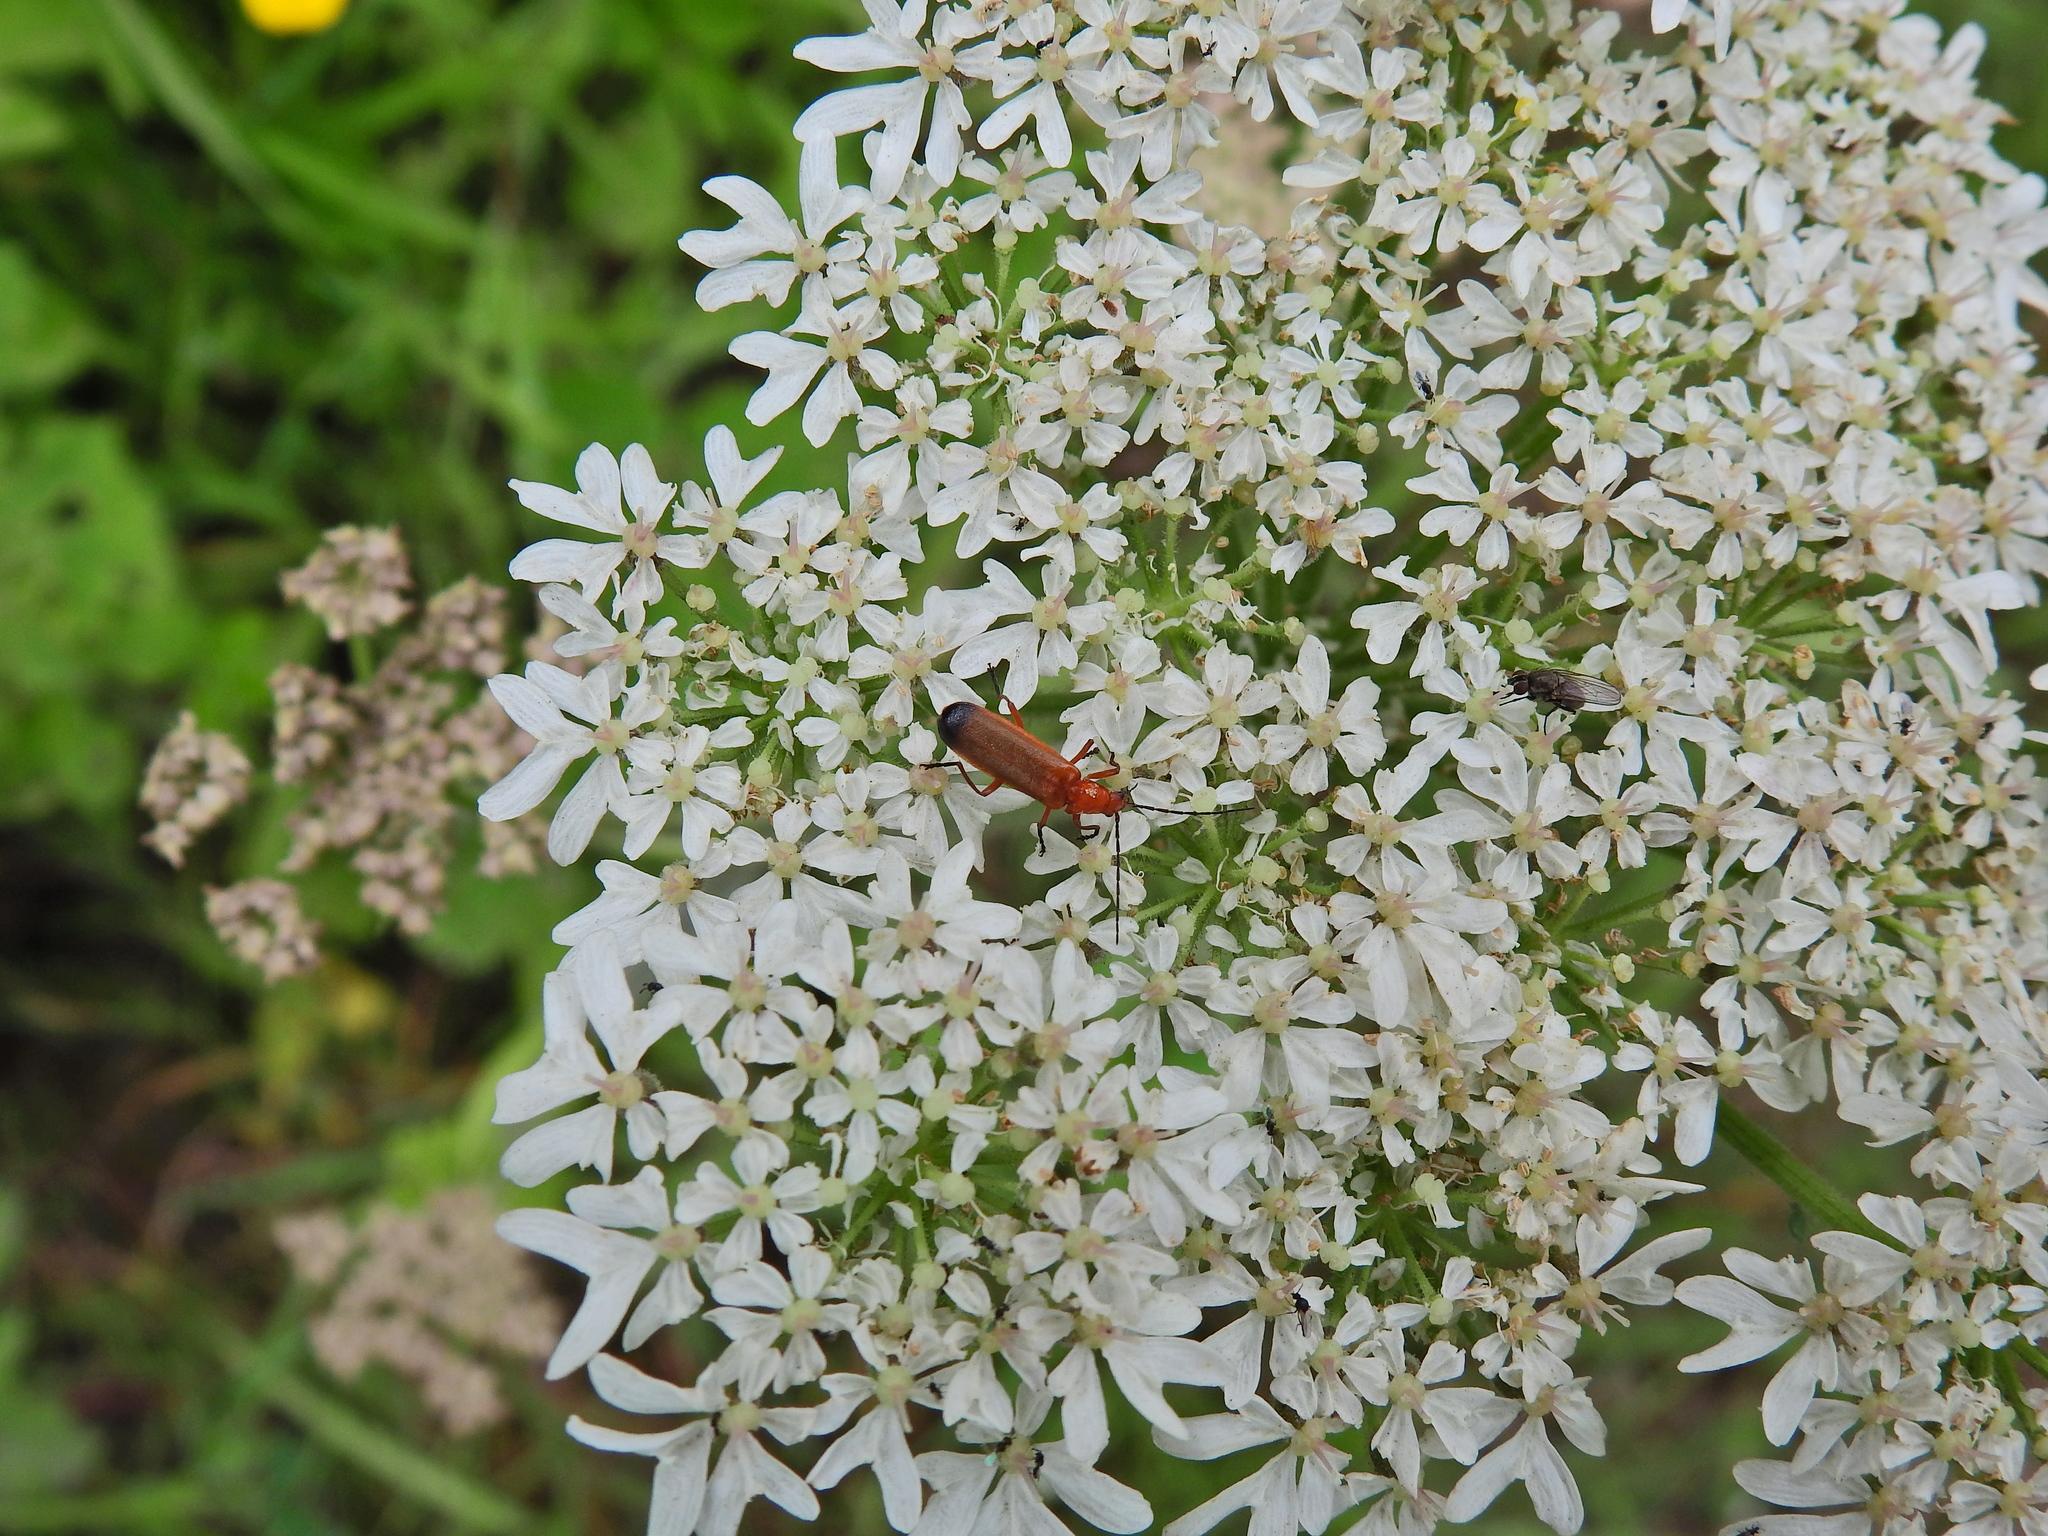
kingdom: Animalia
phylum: Arthropoda
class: Insecta
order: Coleoptera
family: Cantharidae
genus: Rhagonycha
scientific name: Rhagonycha fulva
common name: Common red soldier beetle
